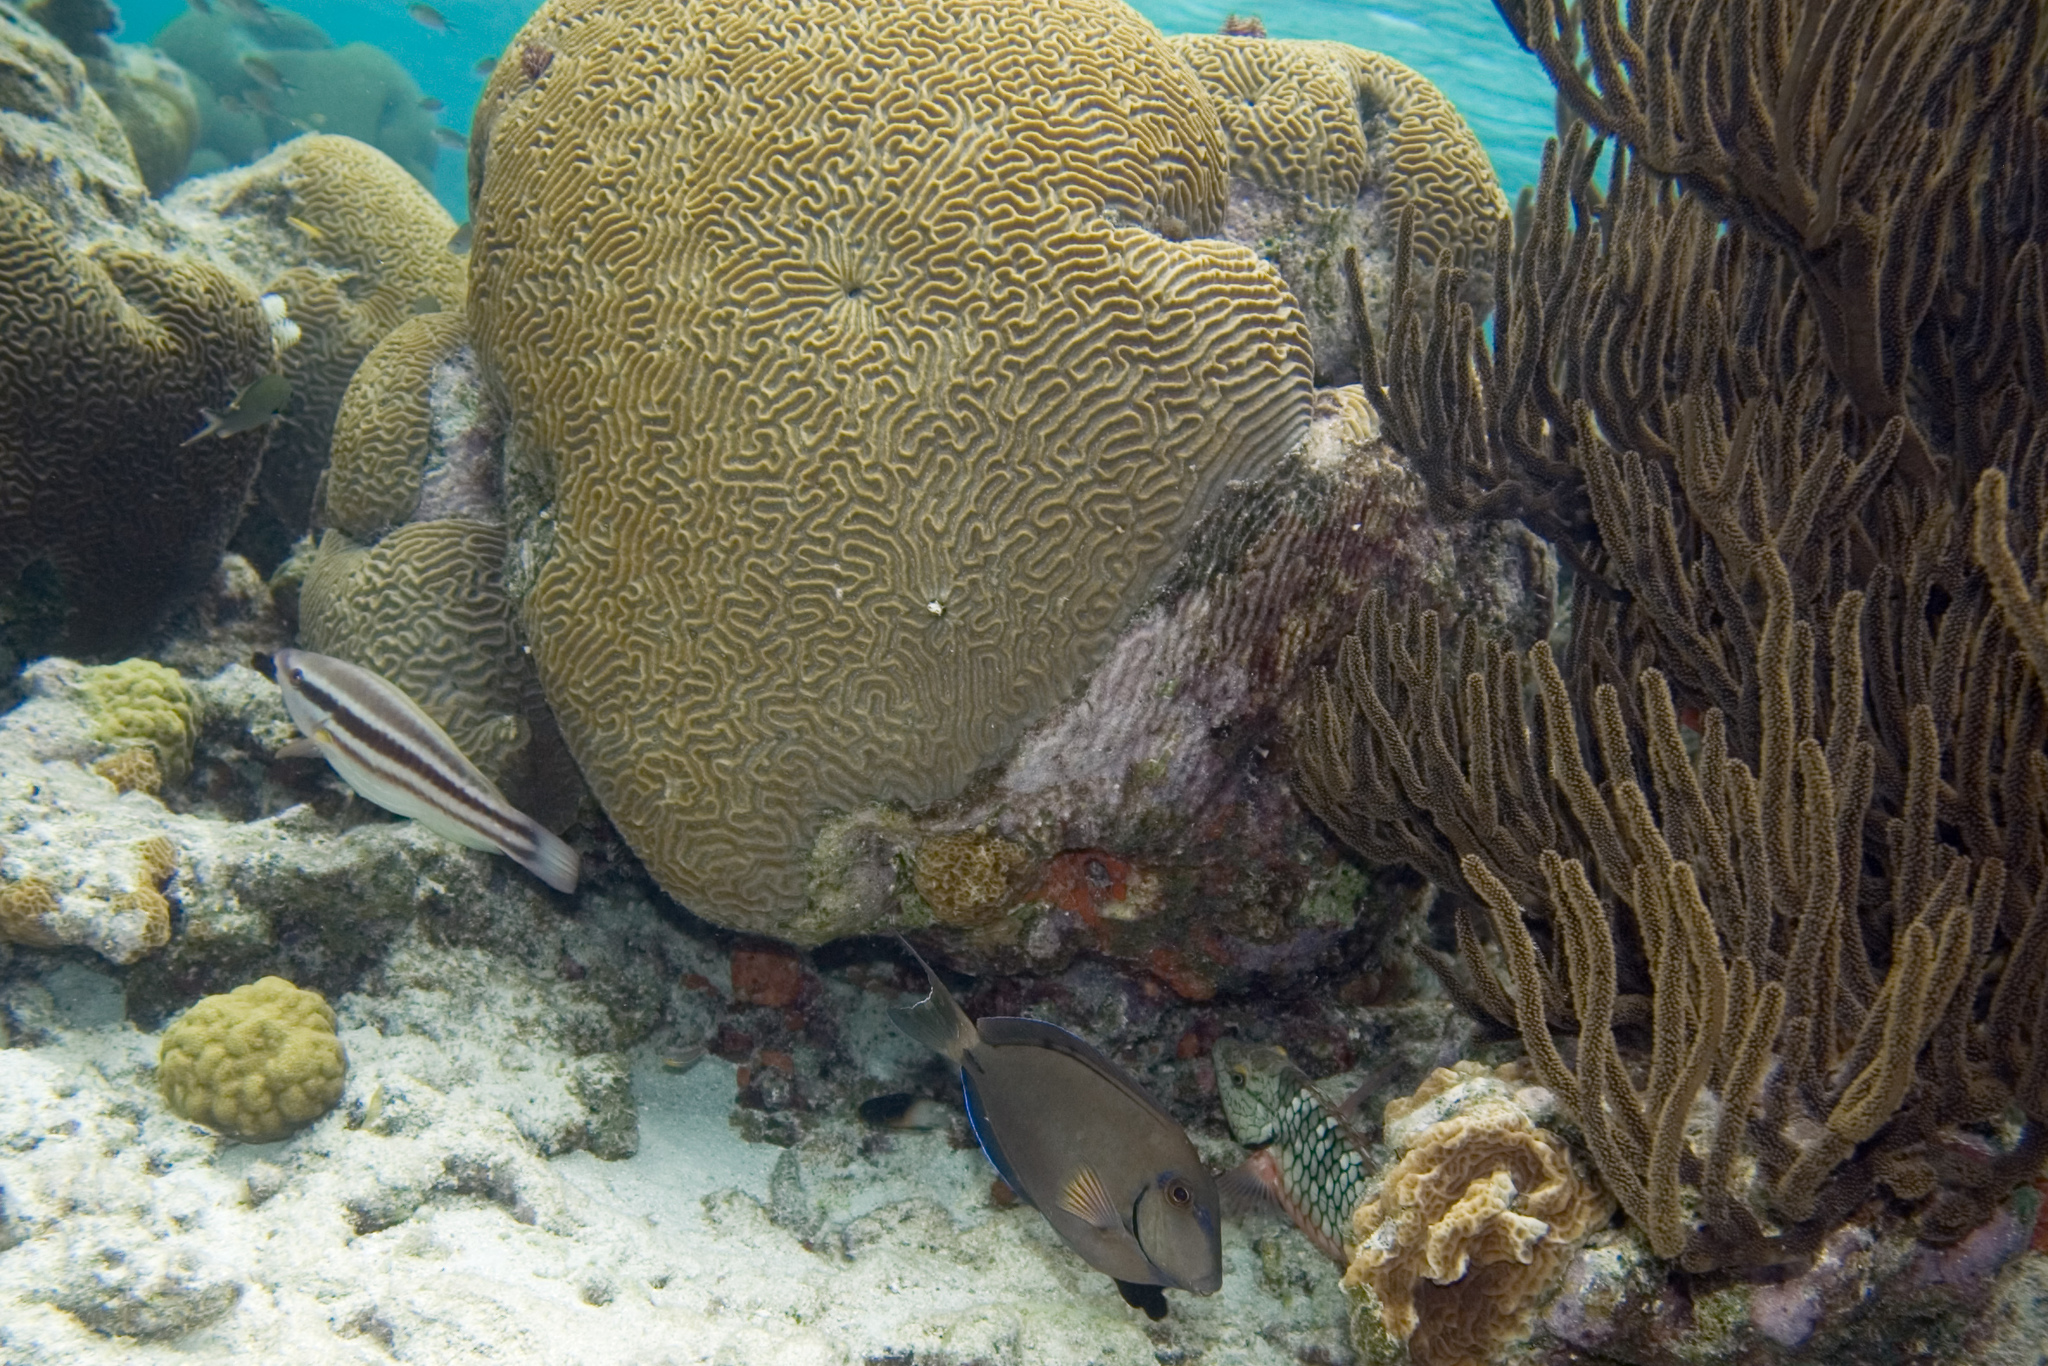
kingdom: Animalia
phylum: Chordata
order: Perciformes
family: Acanthuridae
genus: Acanthurus
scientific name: Acanthurus bahianus
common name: Ocean surgeon
